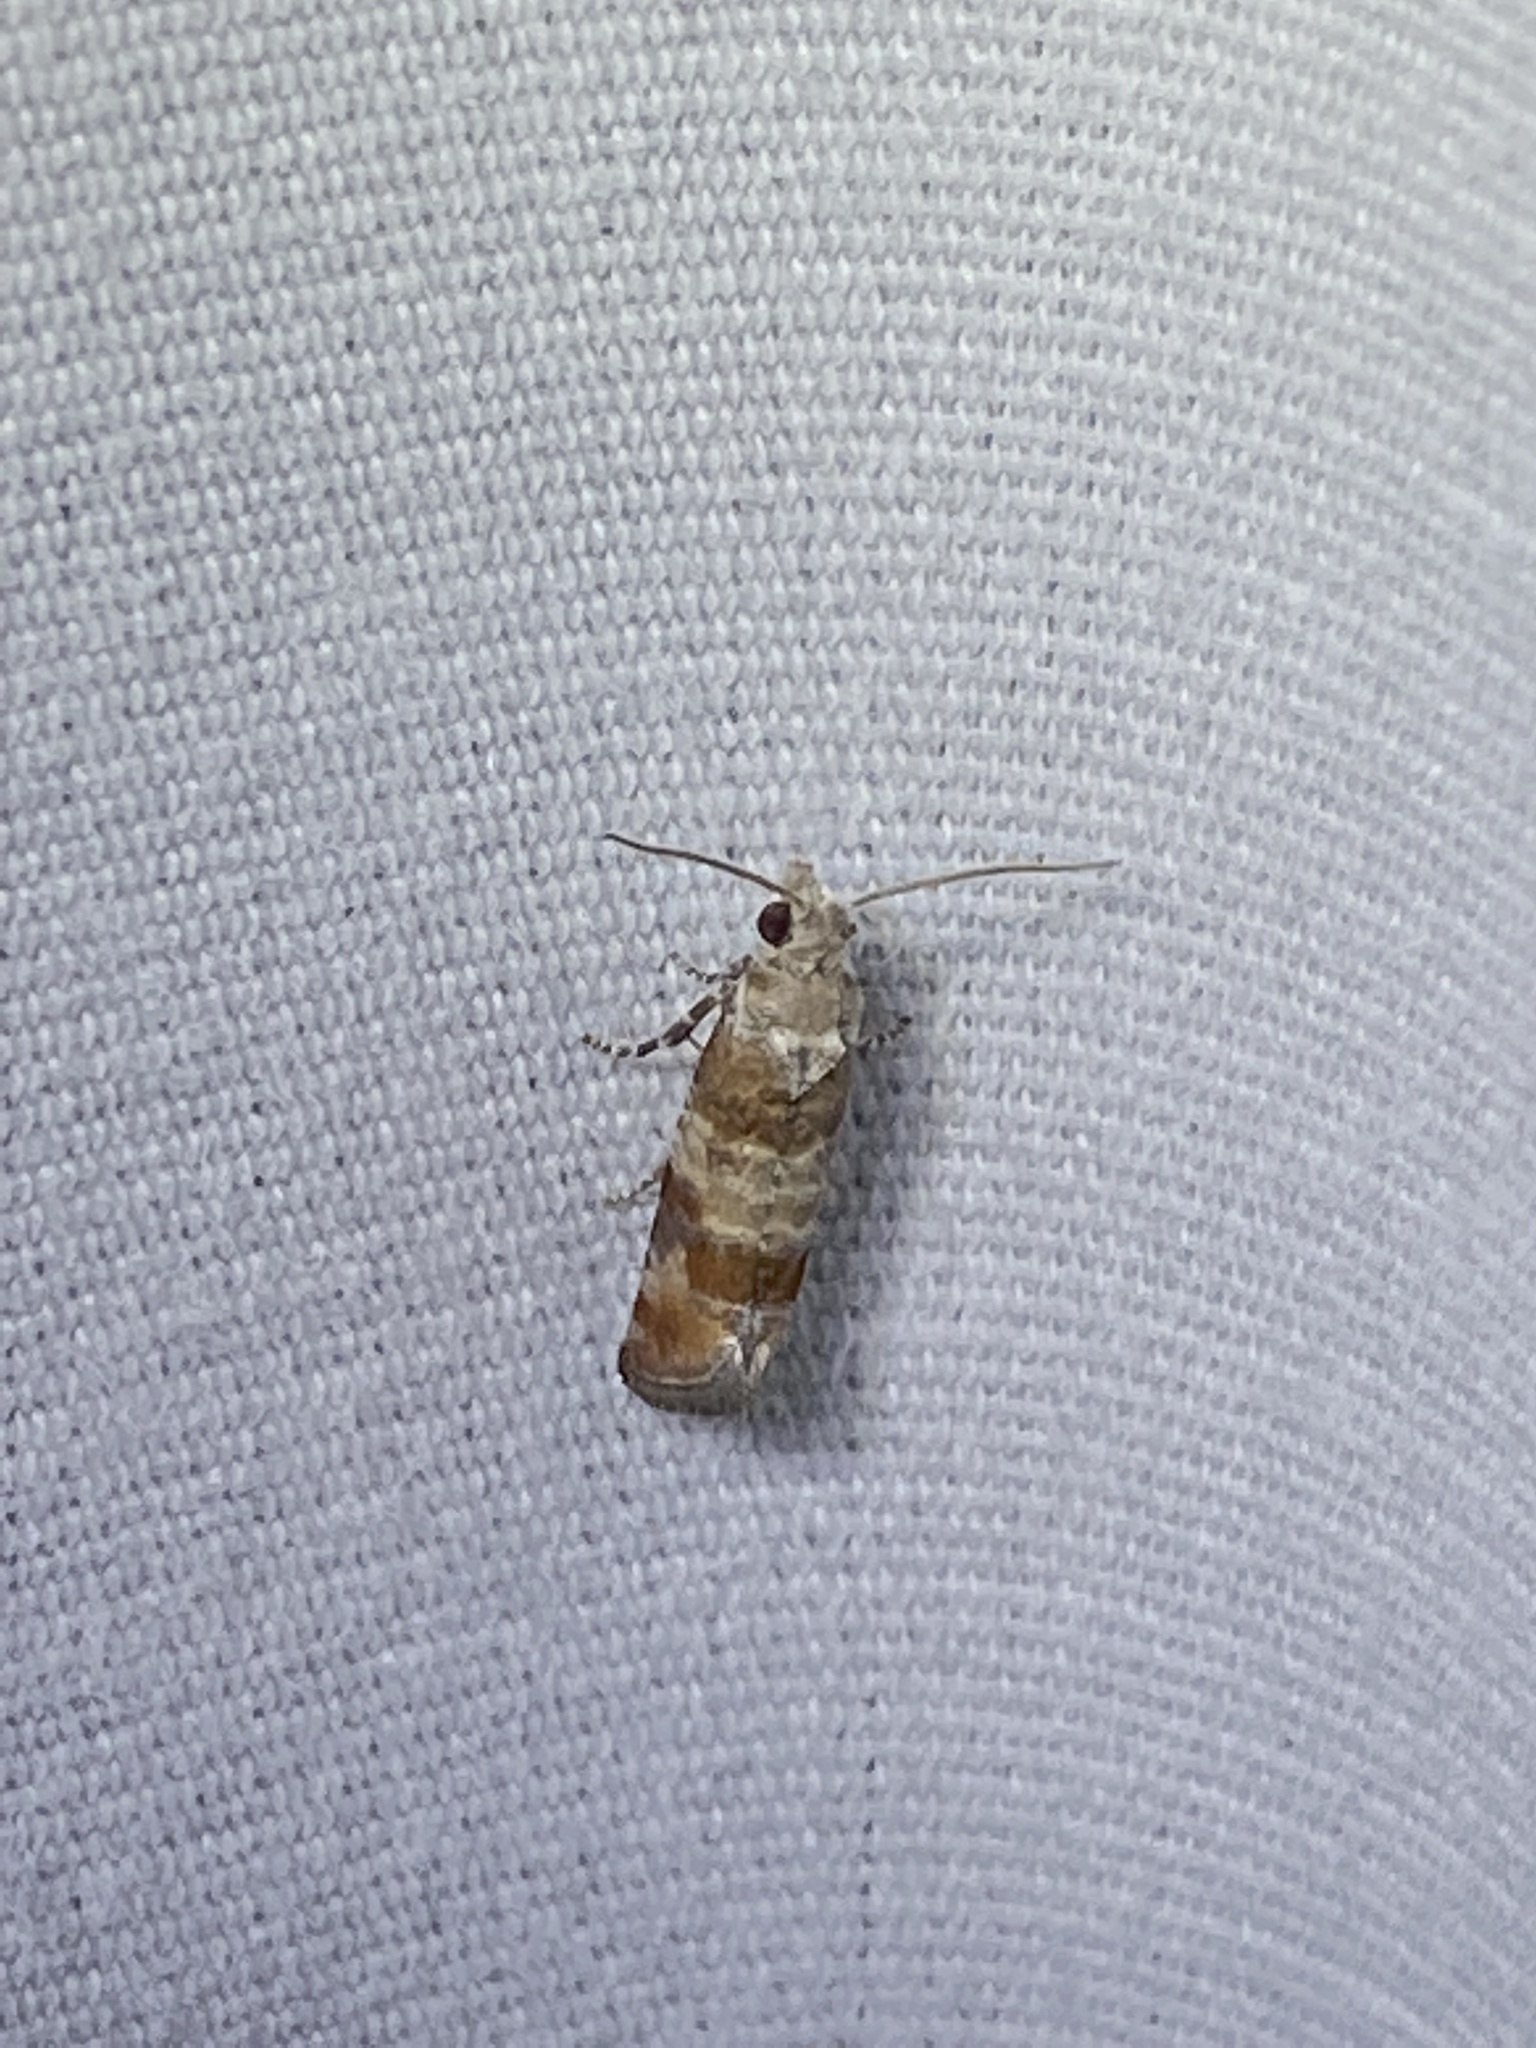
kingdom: Animalia
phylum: Arthropoda
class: Insecta
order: Lepidoptera
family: Tortricidae
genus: Rhyacionia
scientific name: Rhyacionia rigidana
